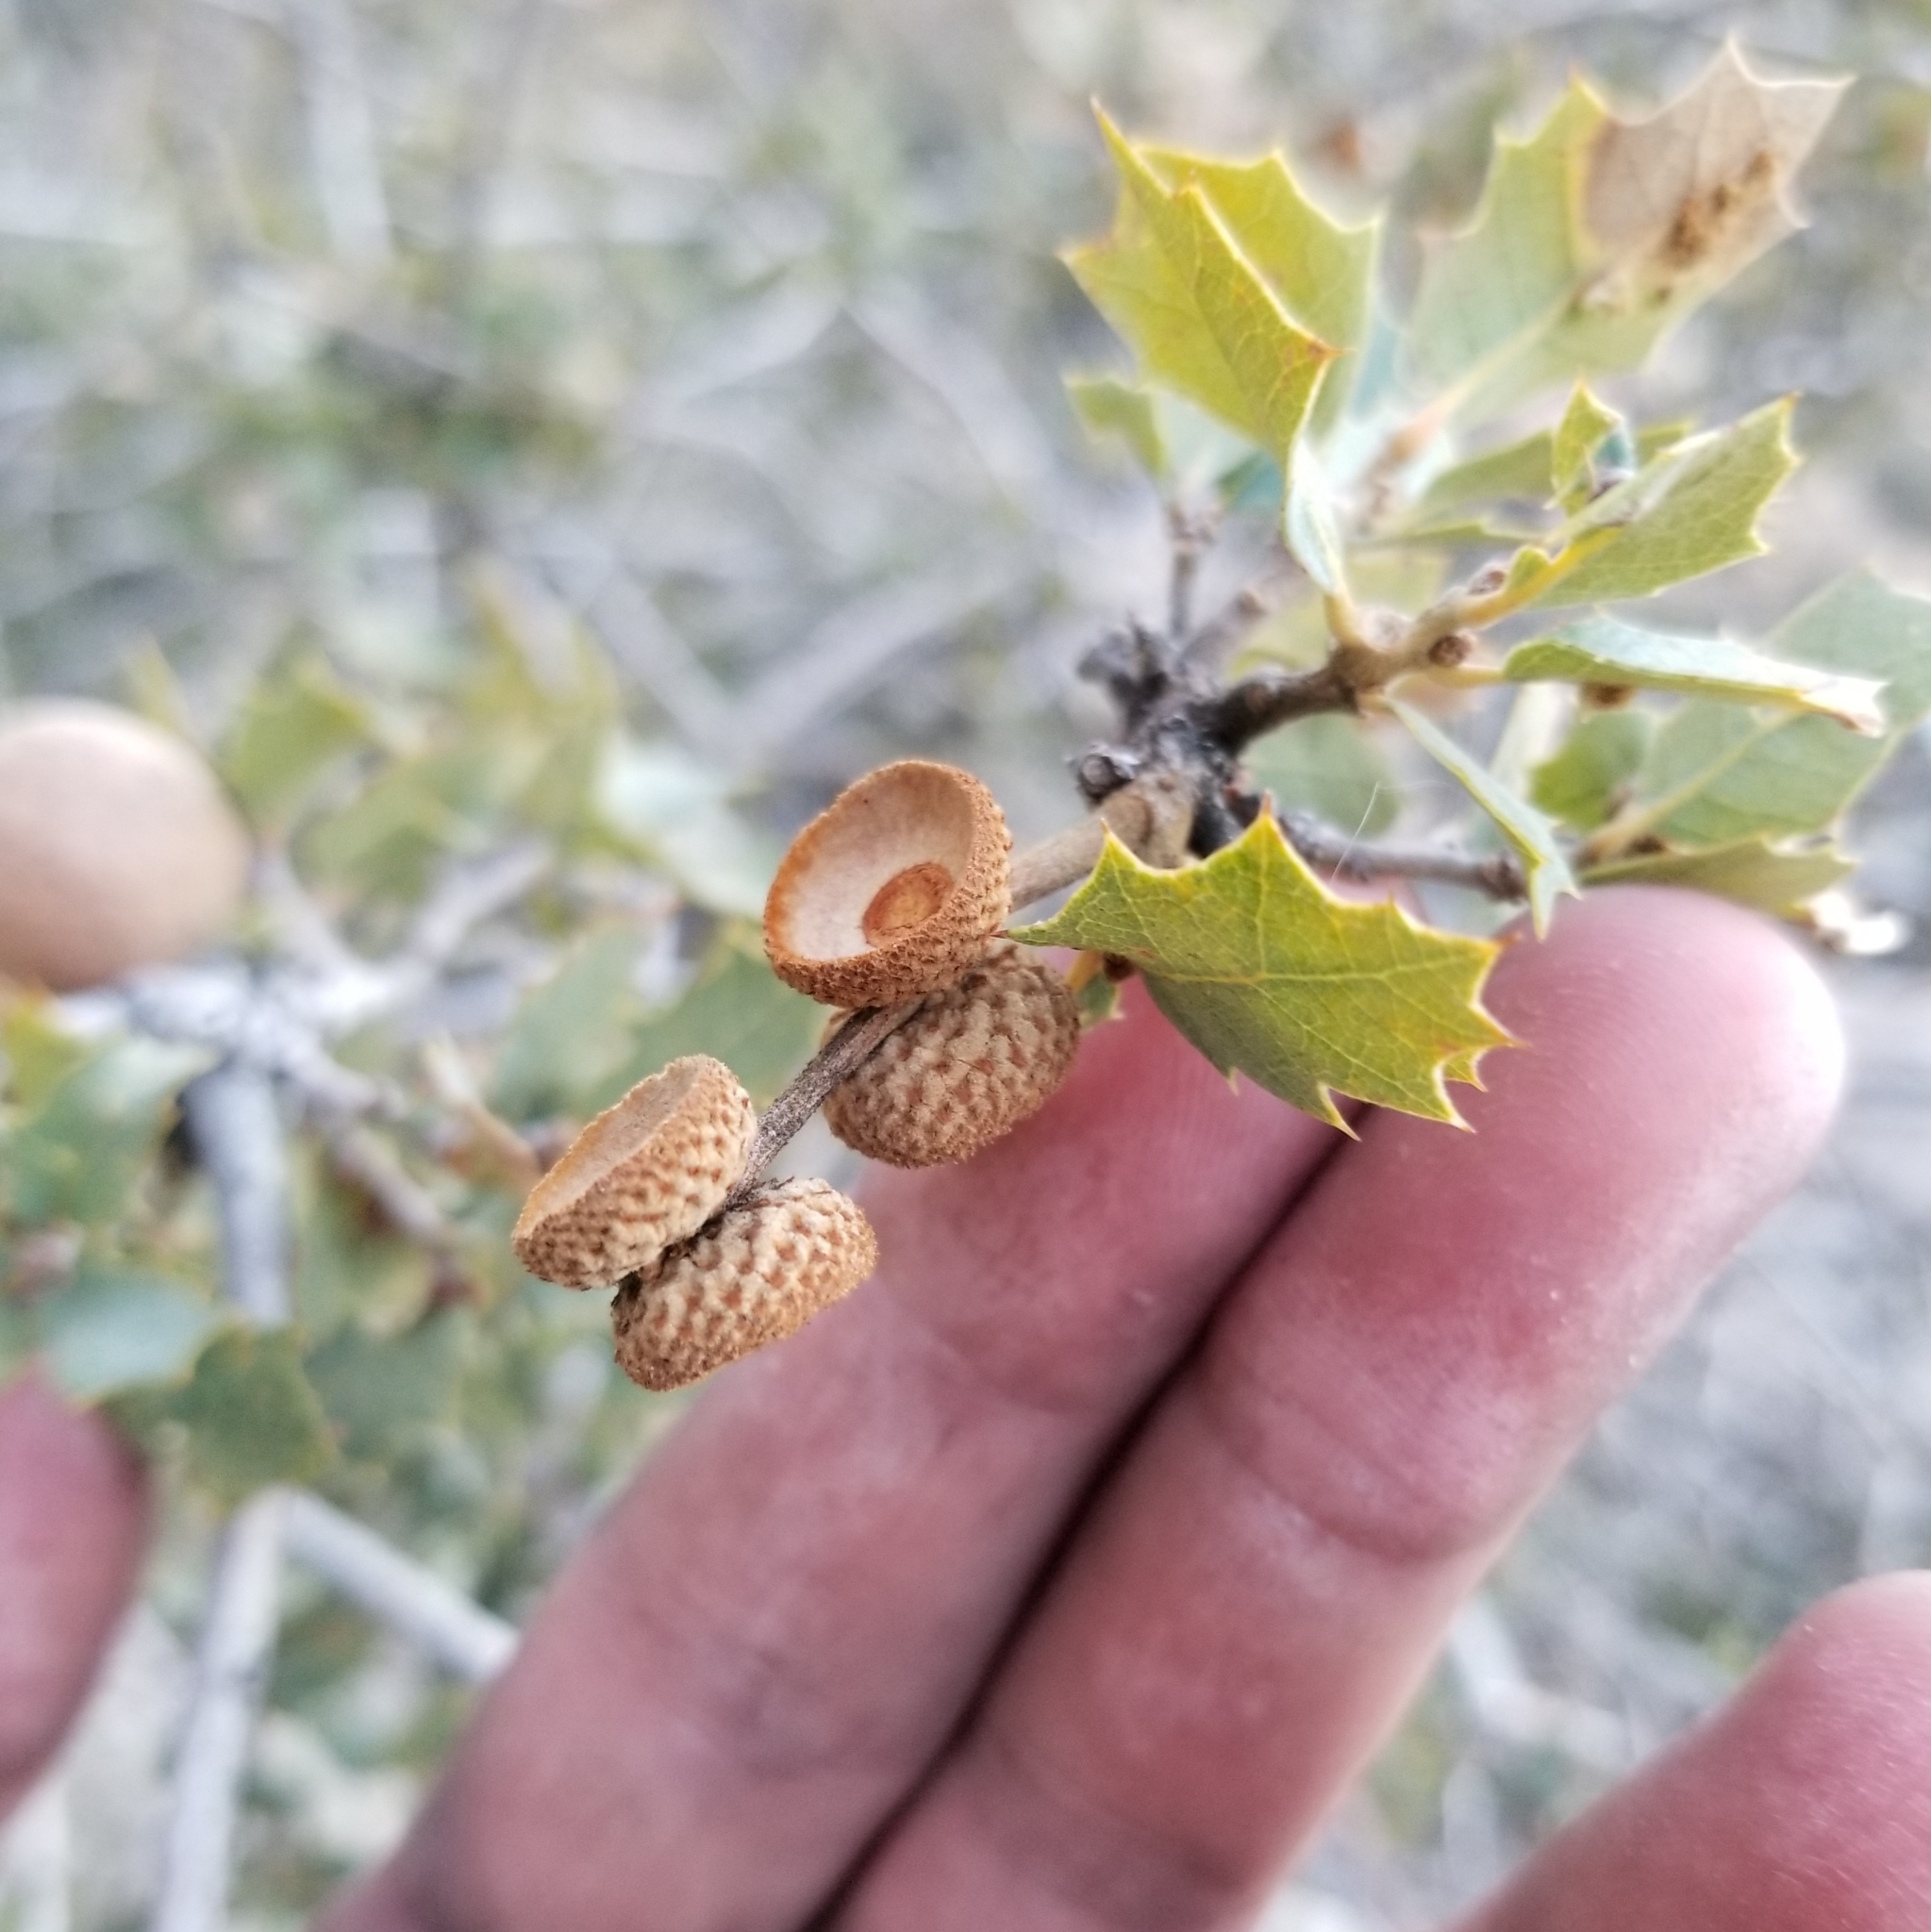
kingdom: Plantae
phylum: Tracheophyta
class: Magnoliopsida
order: Fagales
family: Fagaceae
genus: Quercus
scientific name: Quercus turbinella
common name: Sonoran scrub oak
